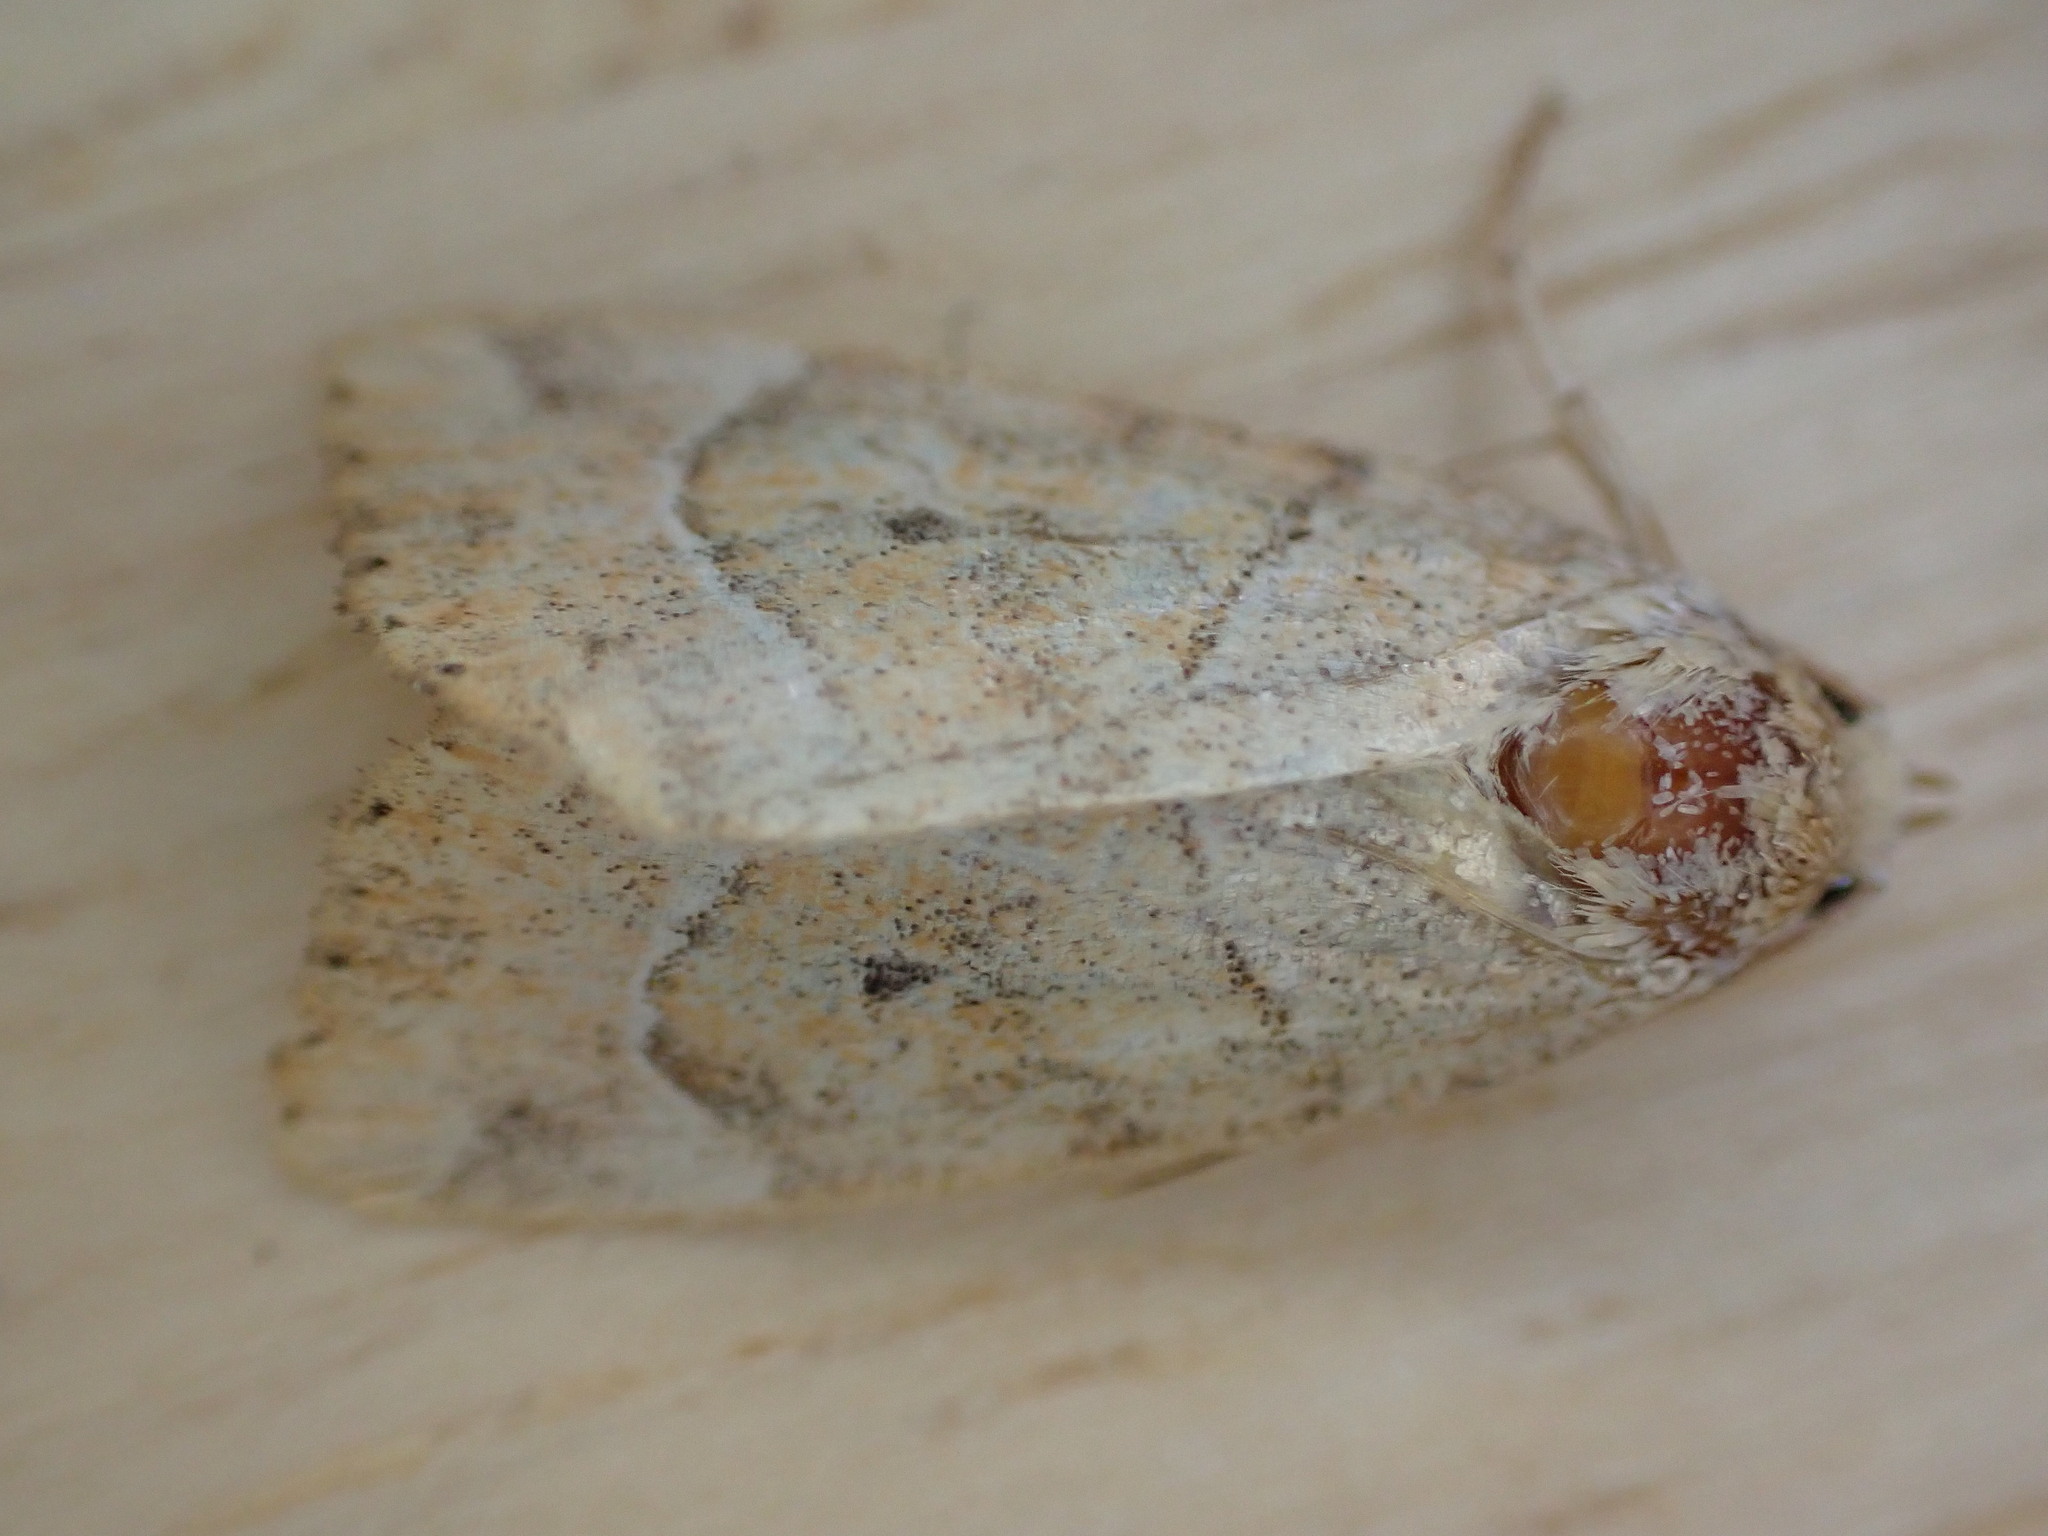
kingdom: Animalia
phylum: Arthropoda
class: Insecta
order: Lepidoptera
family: Noctuidae
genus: Cosmia
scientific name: Cosmia trapezina
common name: Dun-bar
